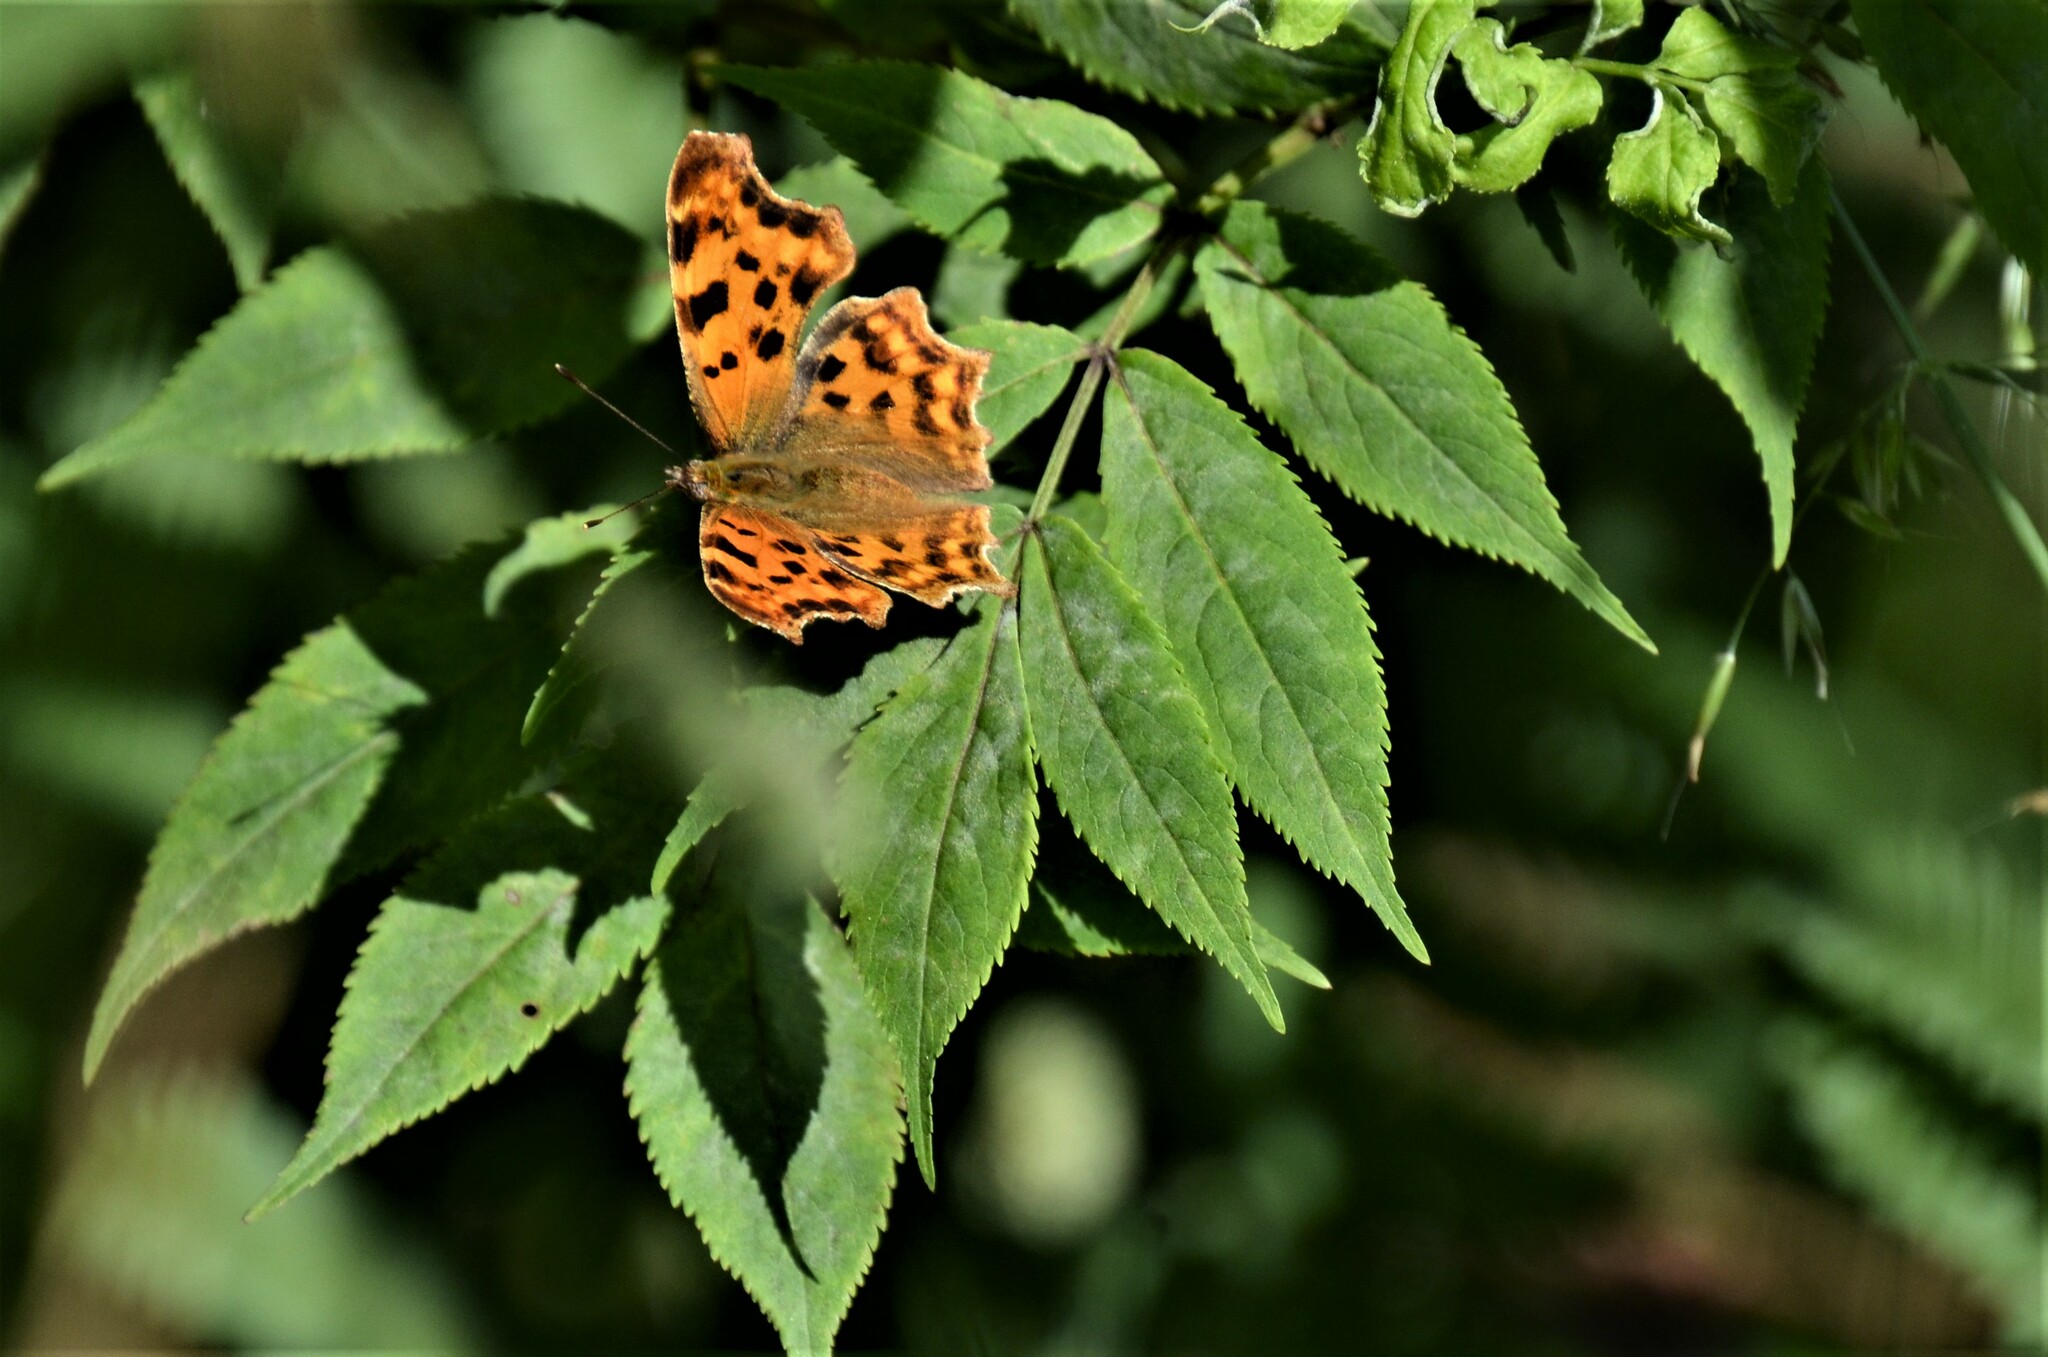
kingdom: Animalia
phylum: Arthropoda
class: Insecta
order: Lepidoptera
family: Nymphalidae
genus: Polygonia
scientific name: Polygonia c-album
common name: Comma
